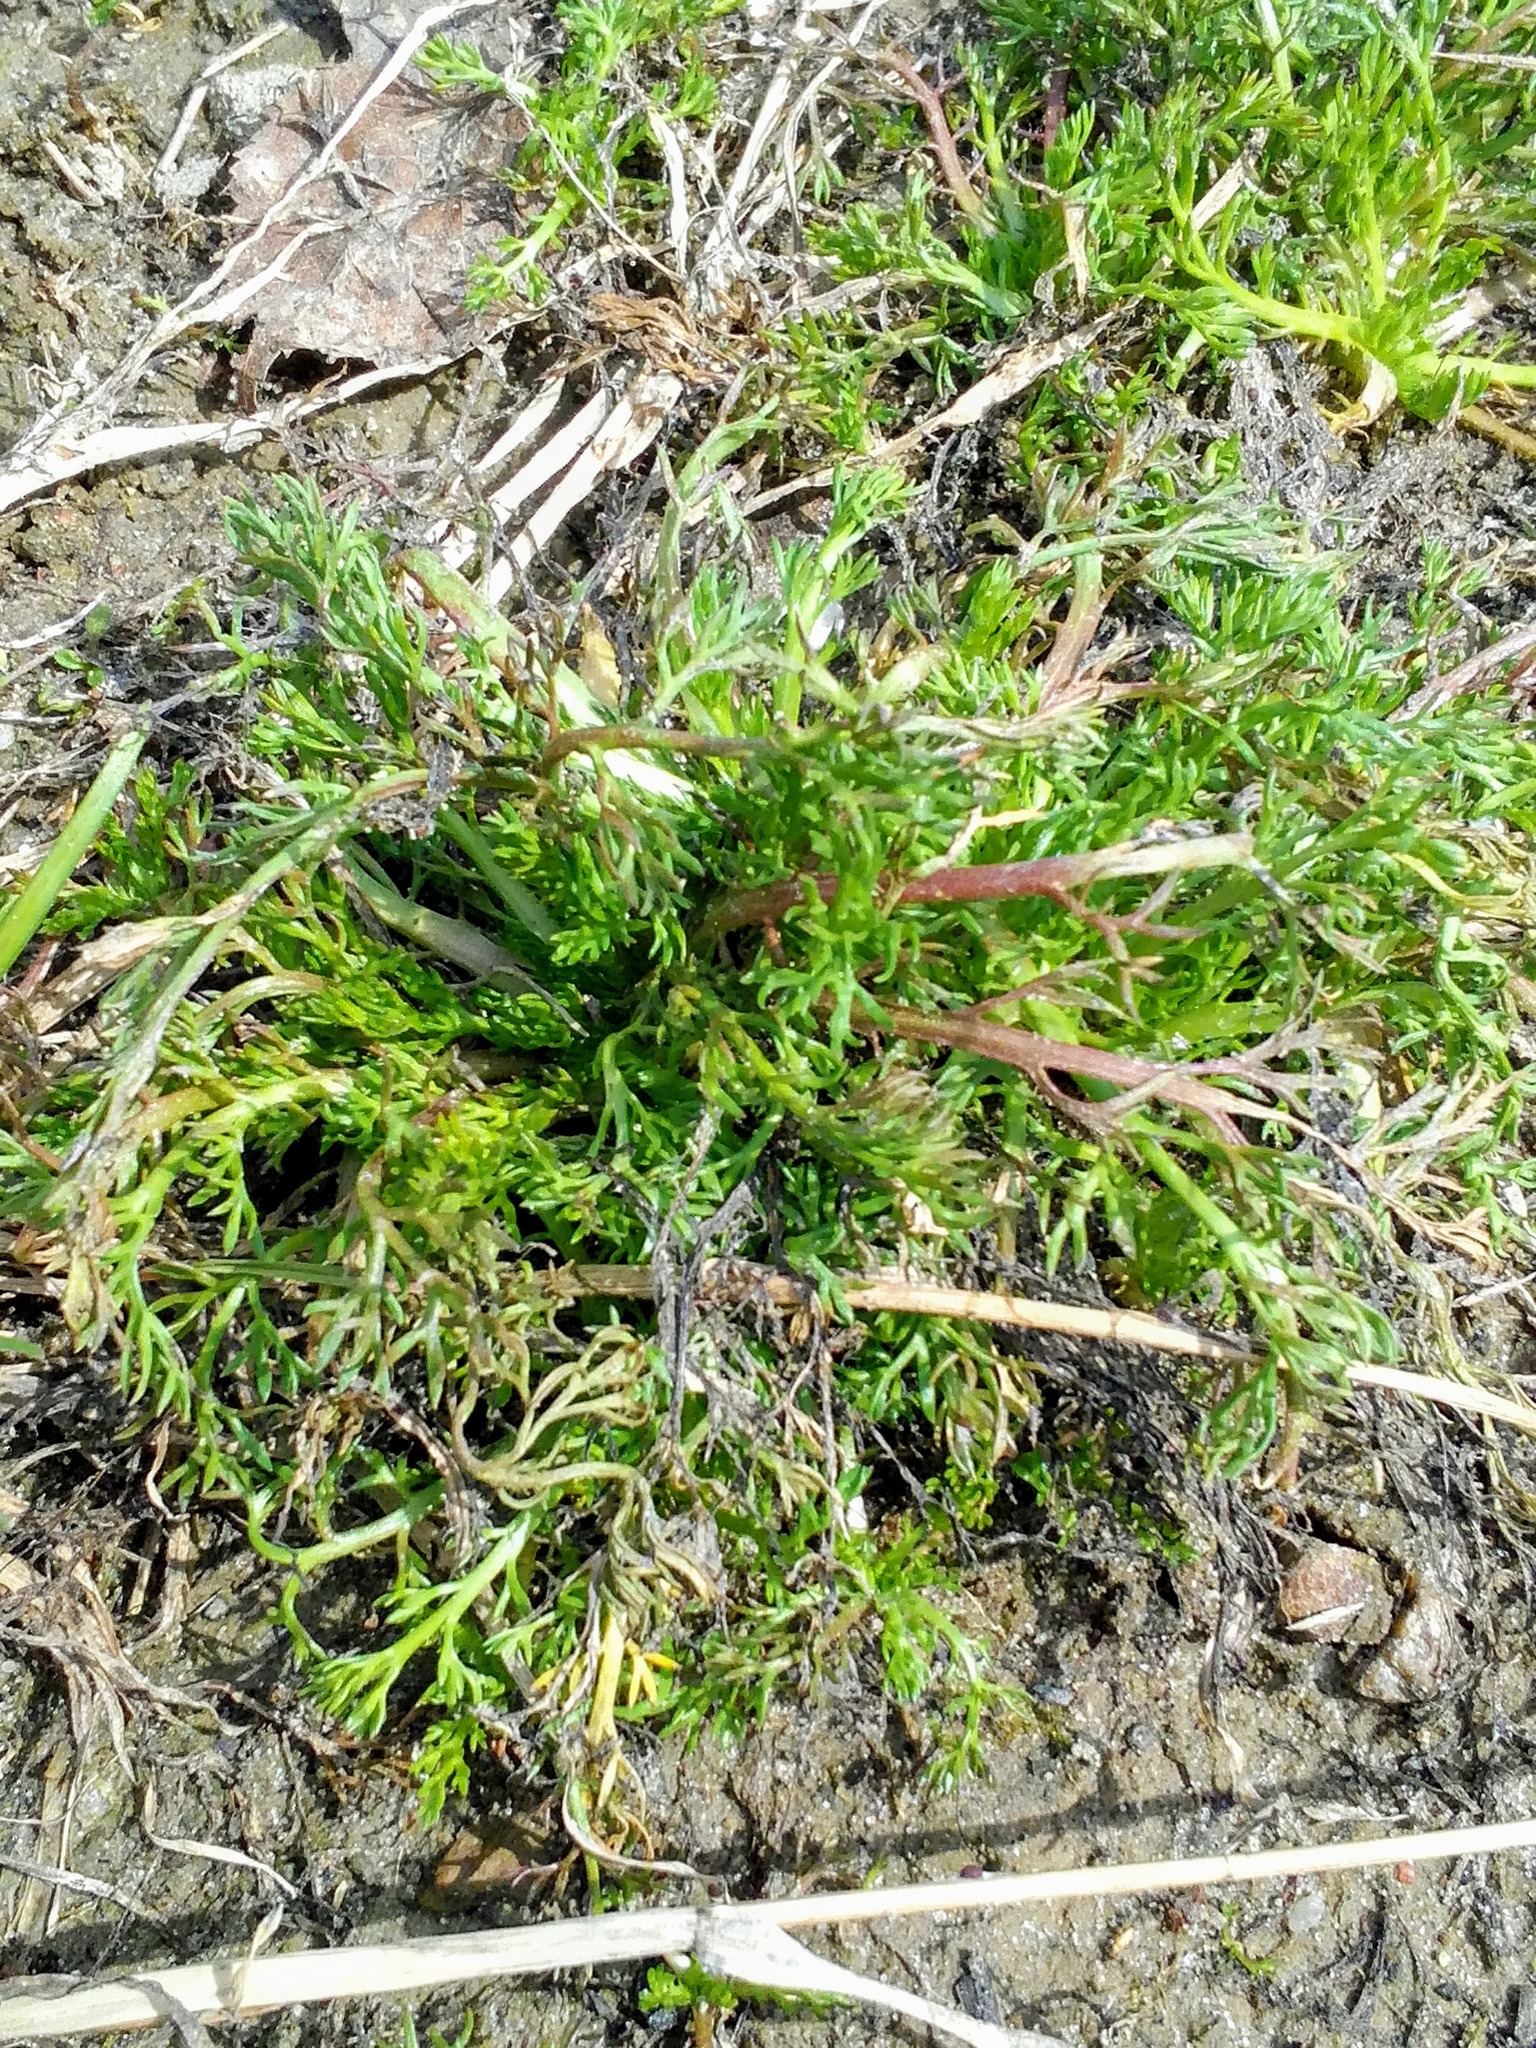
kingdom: Plantae
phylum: Tracheophyta
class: Magnoliopsida
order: Asterales
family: Asteraceae
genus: Matricaria
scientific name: Matricaria discoidea
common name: Disc mayweed
